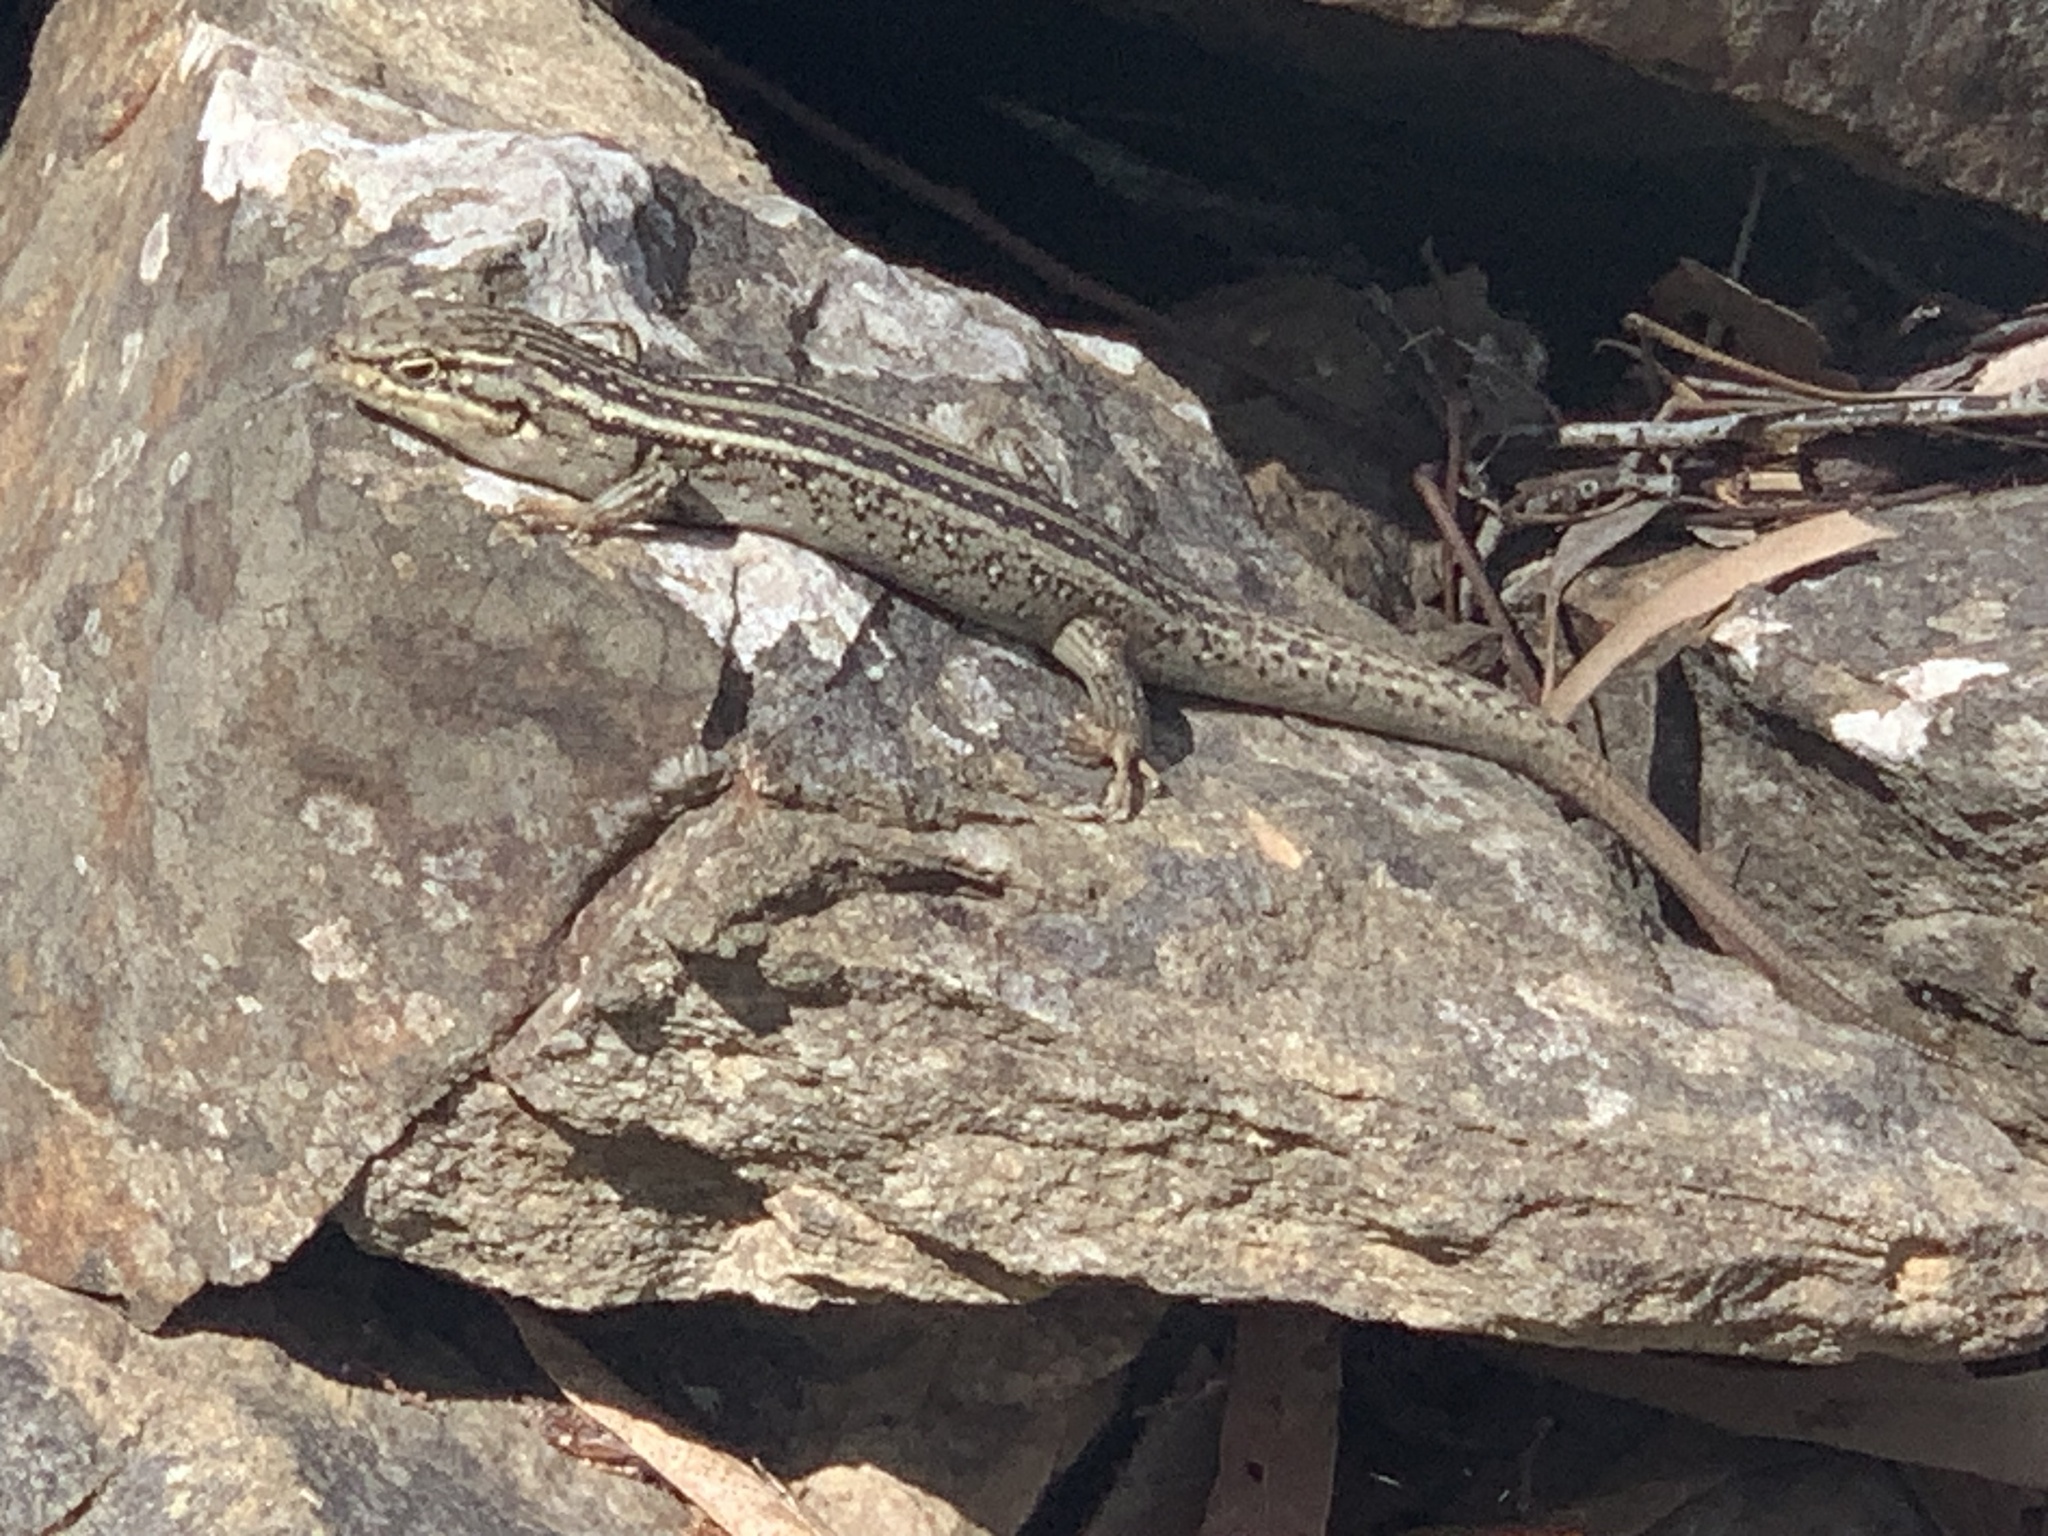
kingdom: Animalia
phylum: Chordata
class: Squamata
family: Scincidae
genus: Liopholis
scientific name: Liopholis whitii
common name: White's rock-skink
